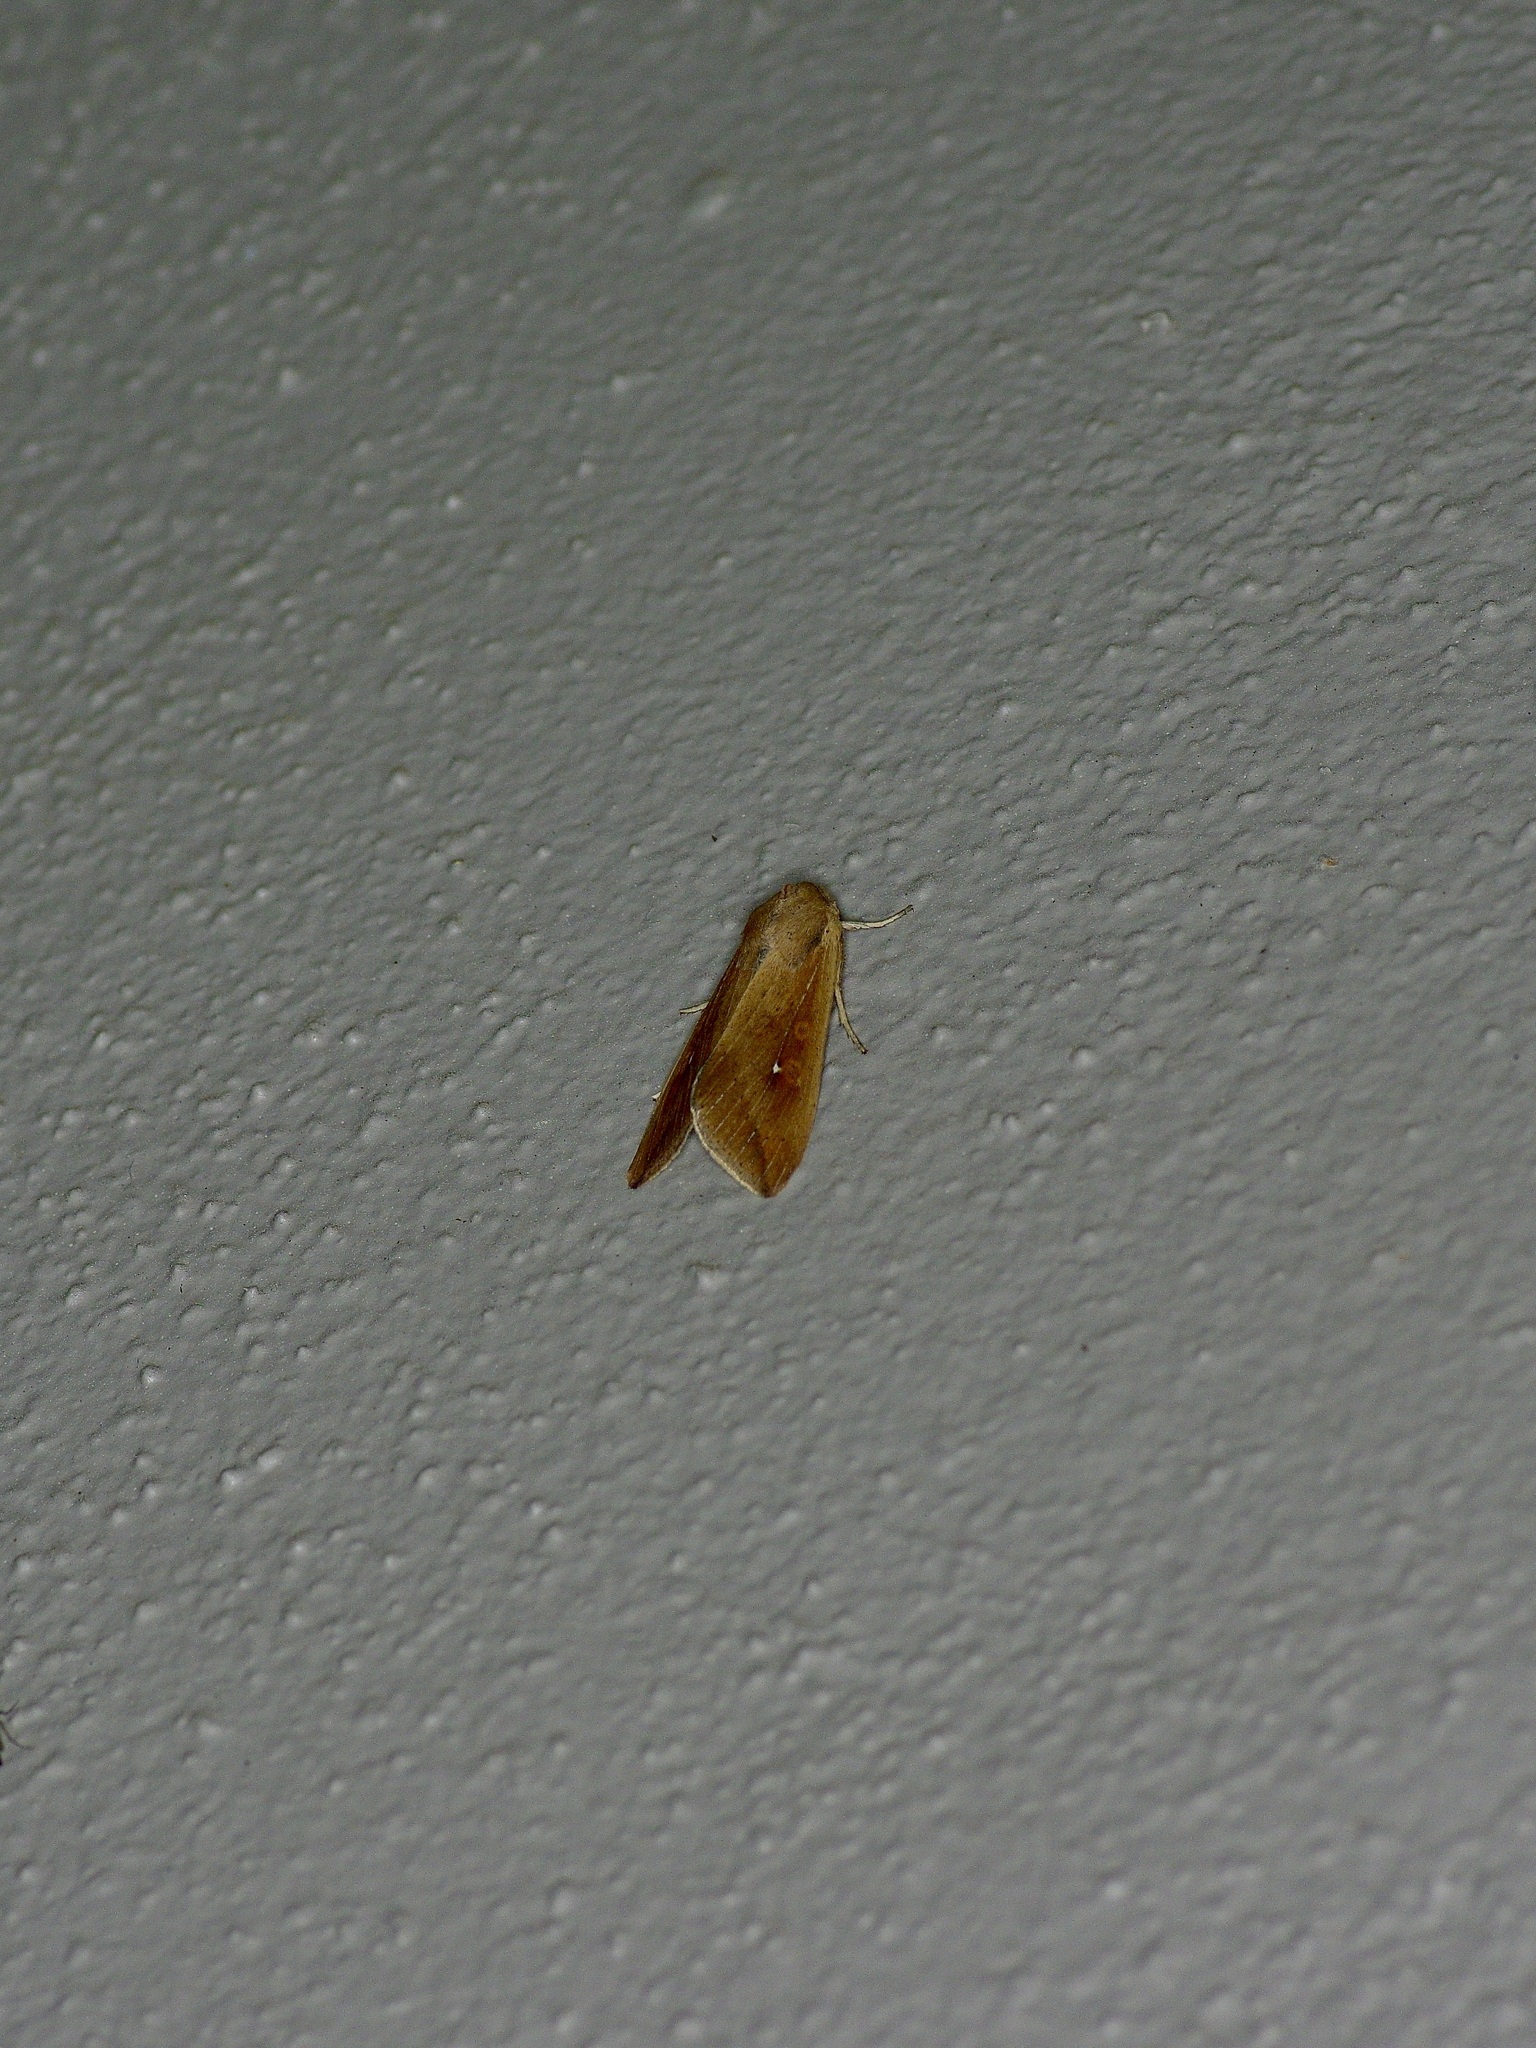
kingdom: Animalia
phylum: Arthropoda
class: Insecta
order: Lepidoptera
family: Noctuidae
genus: Mythimna
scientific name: Mythimna unipuncta
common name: White-speck
